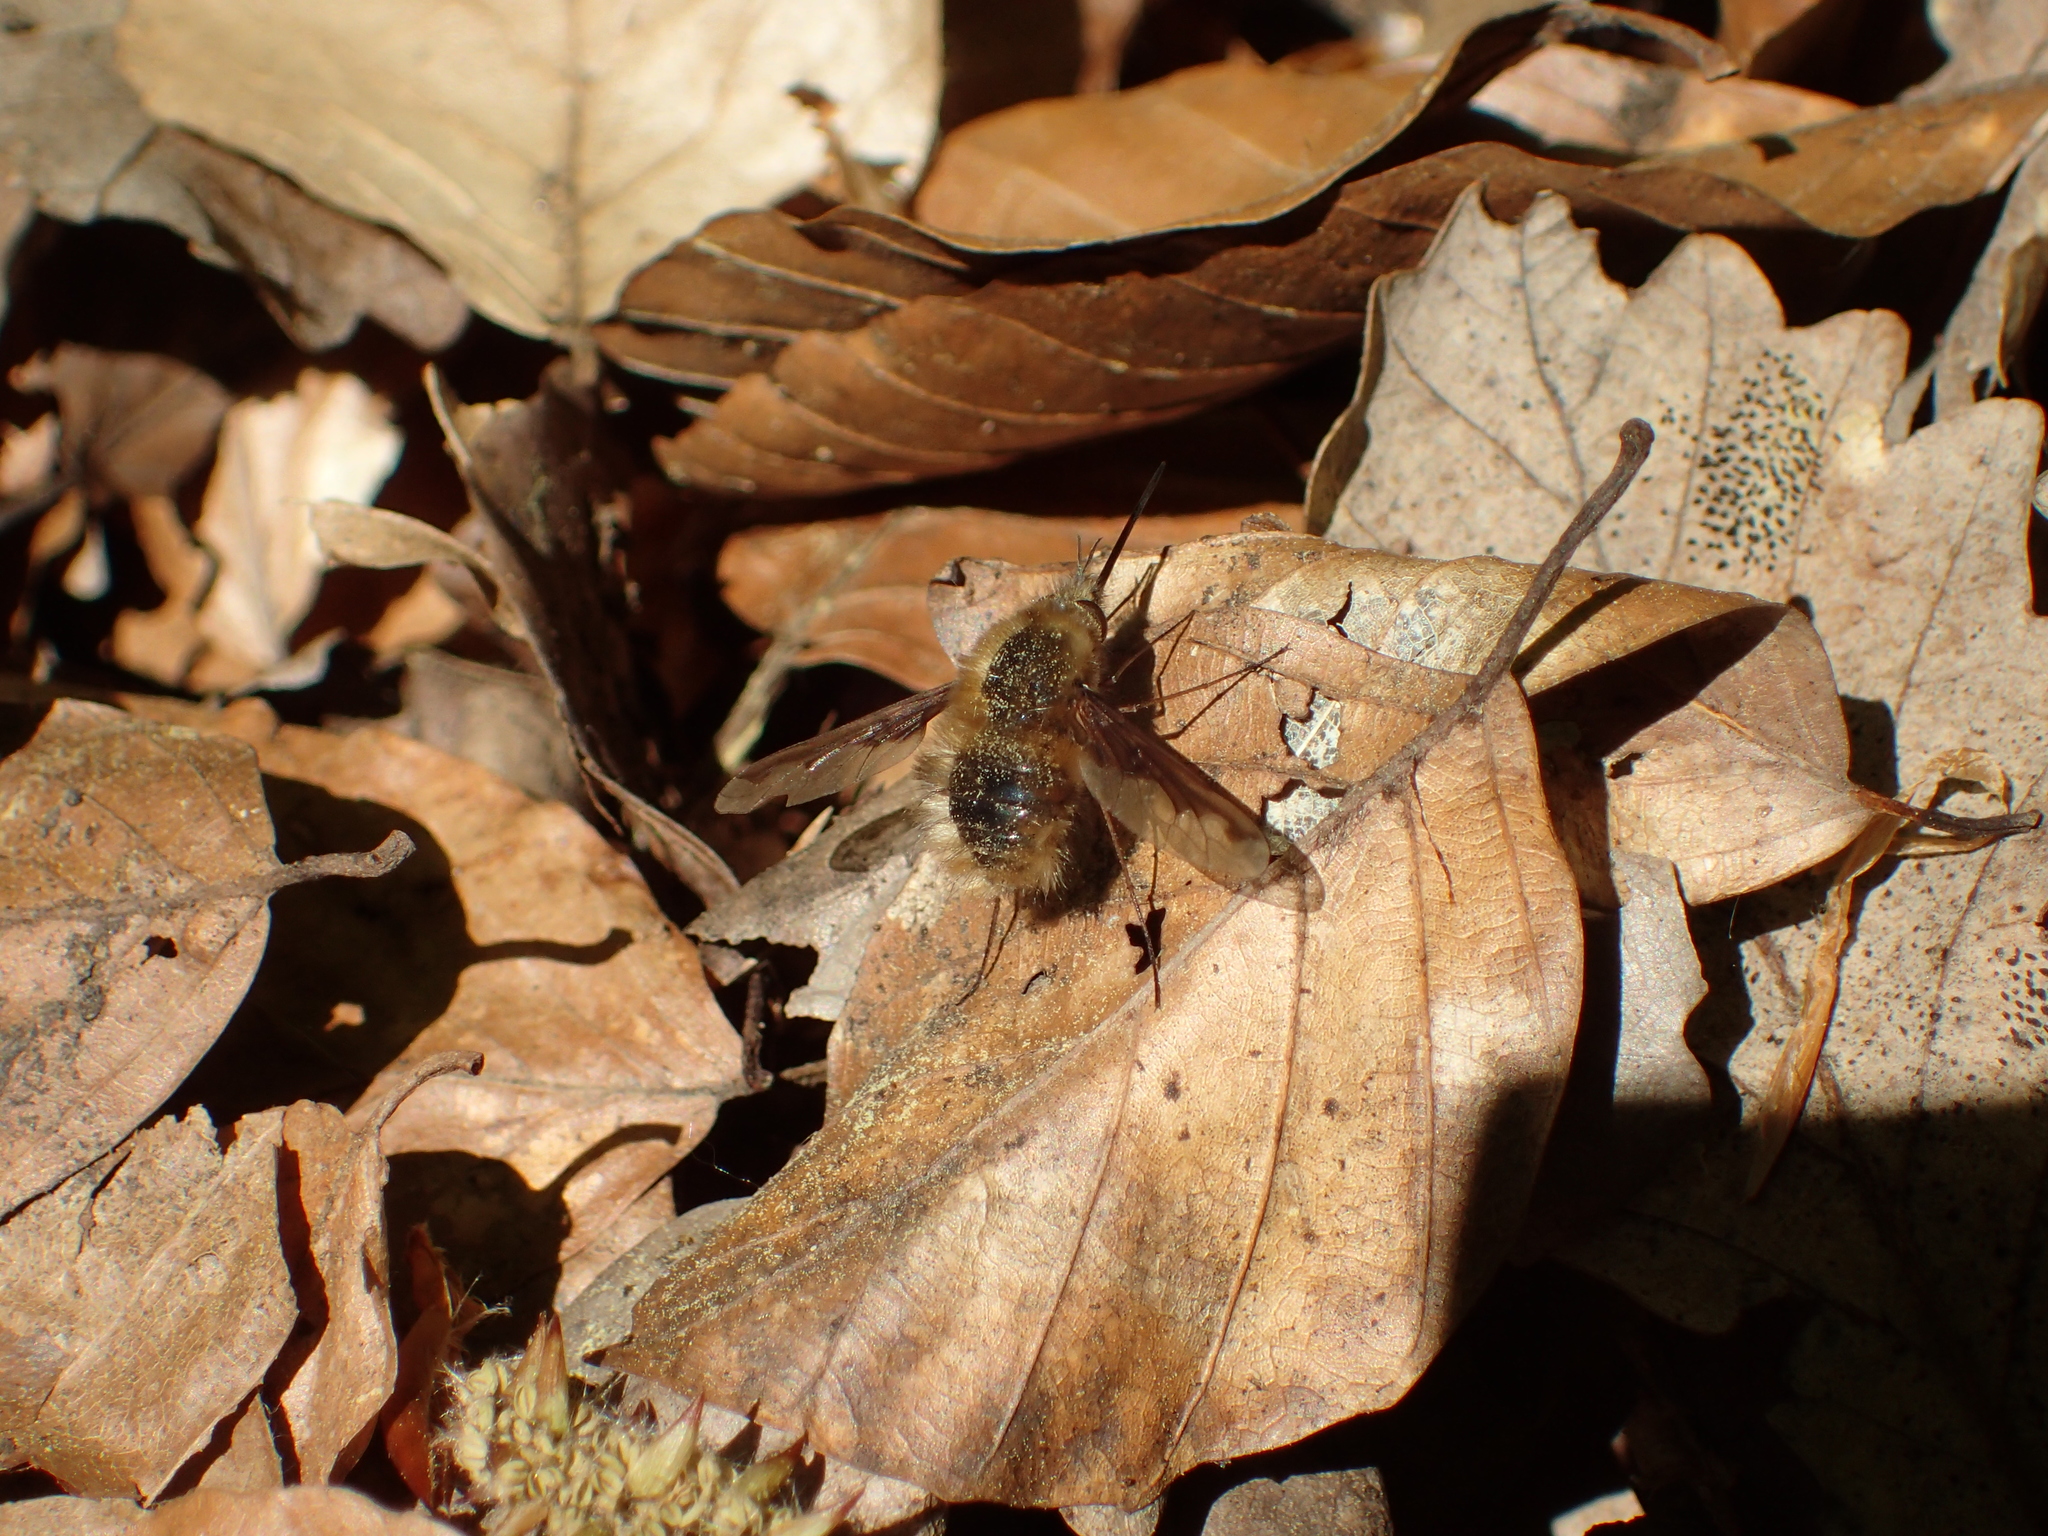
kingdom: Animalia
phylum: Arthropoda
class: Insecta
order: Diptera
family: Bombyliidae
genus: Bombylius
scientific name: Bombylius major
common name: Bee fly
